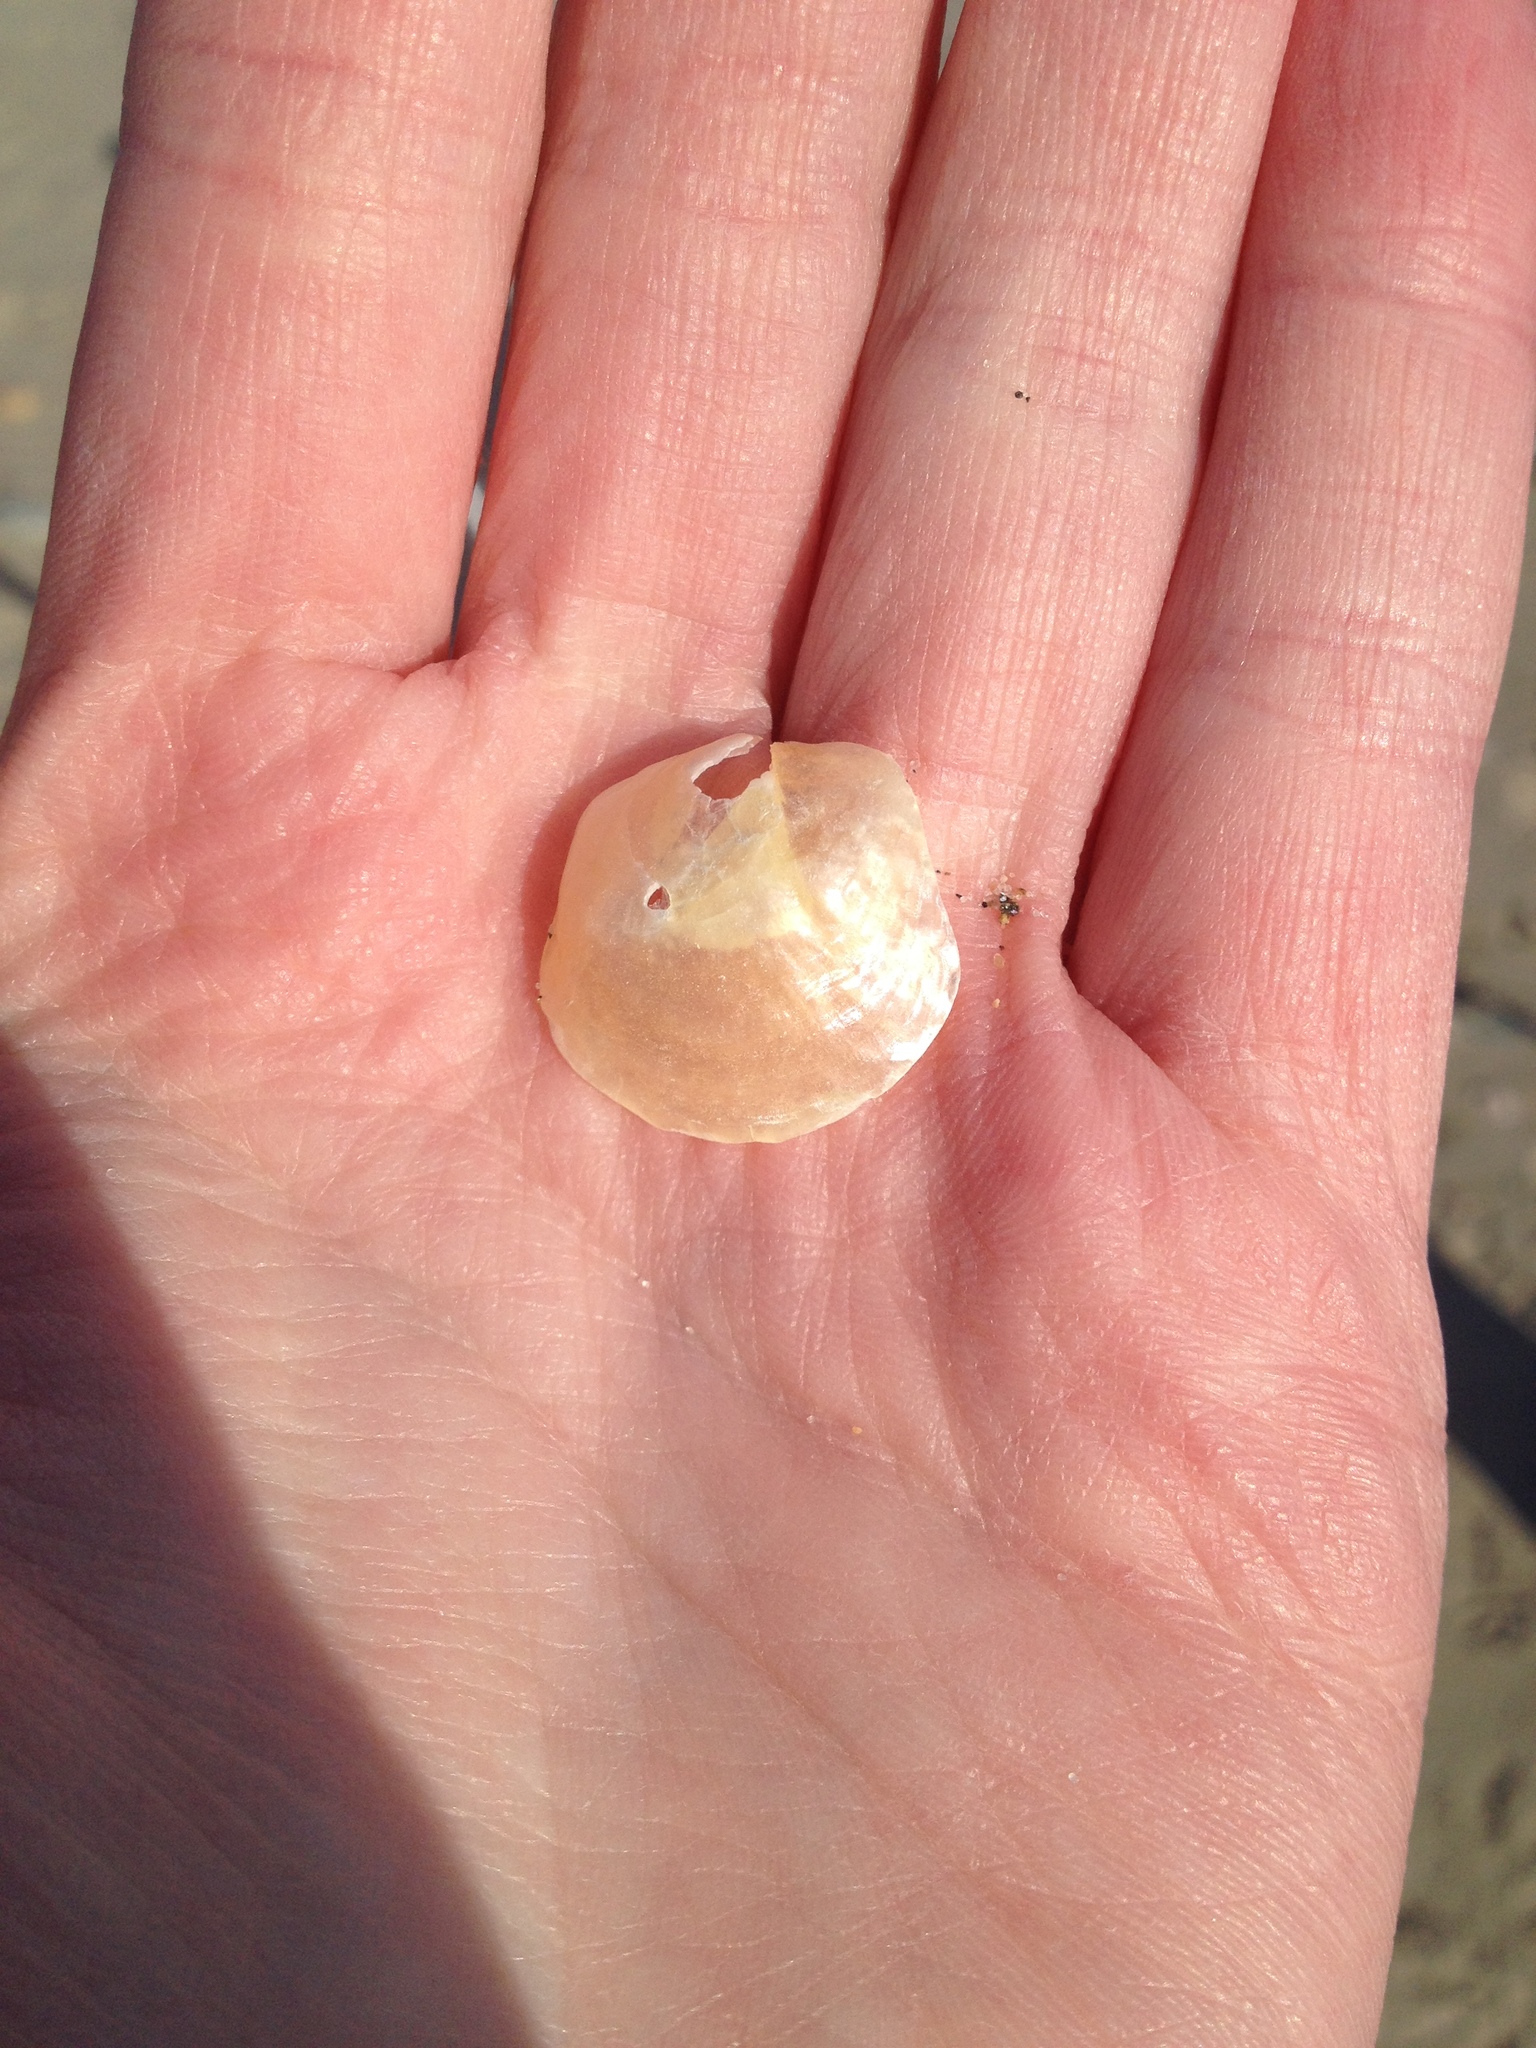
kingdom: Animalia
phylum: Mollusca
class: Bivalvia
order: Pectinida
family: Anomiidae
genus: Anomia
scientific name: Anomia simplex
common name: Common jingle shell
